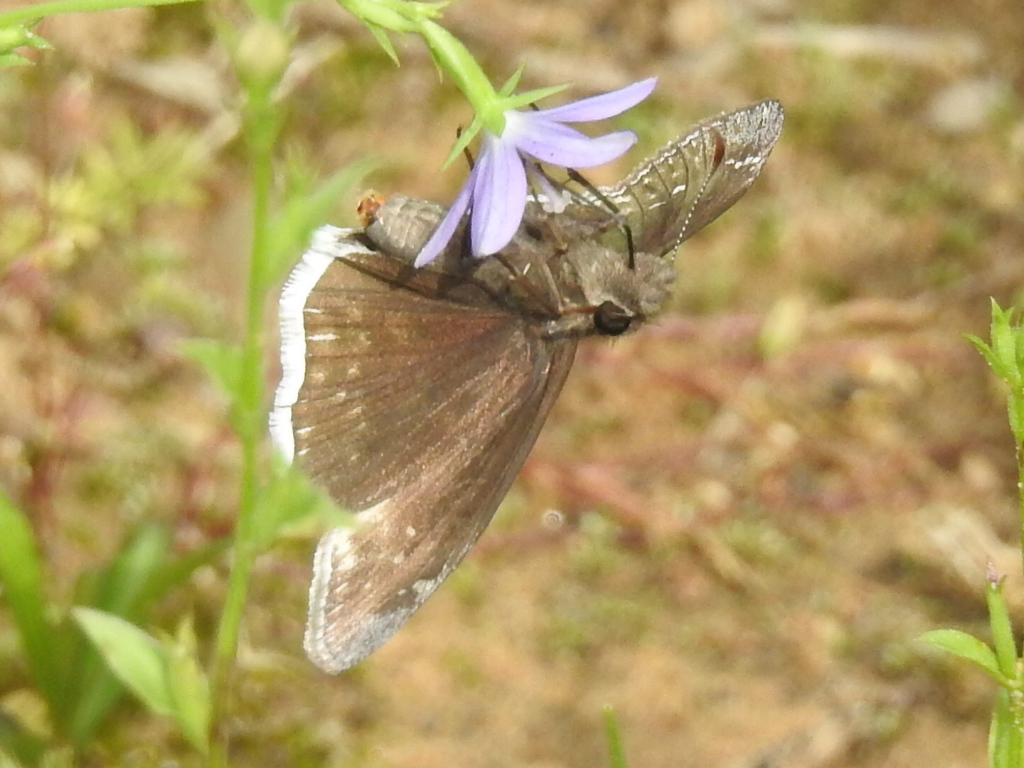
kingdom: Animalia
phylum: Arthropoda
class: Insecta
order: Lepidoptera
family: Hesperiidae
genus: Erynnis
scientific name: Erynnis funeralis
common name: Funereal duskywing
